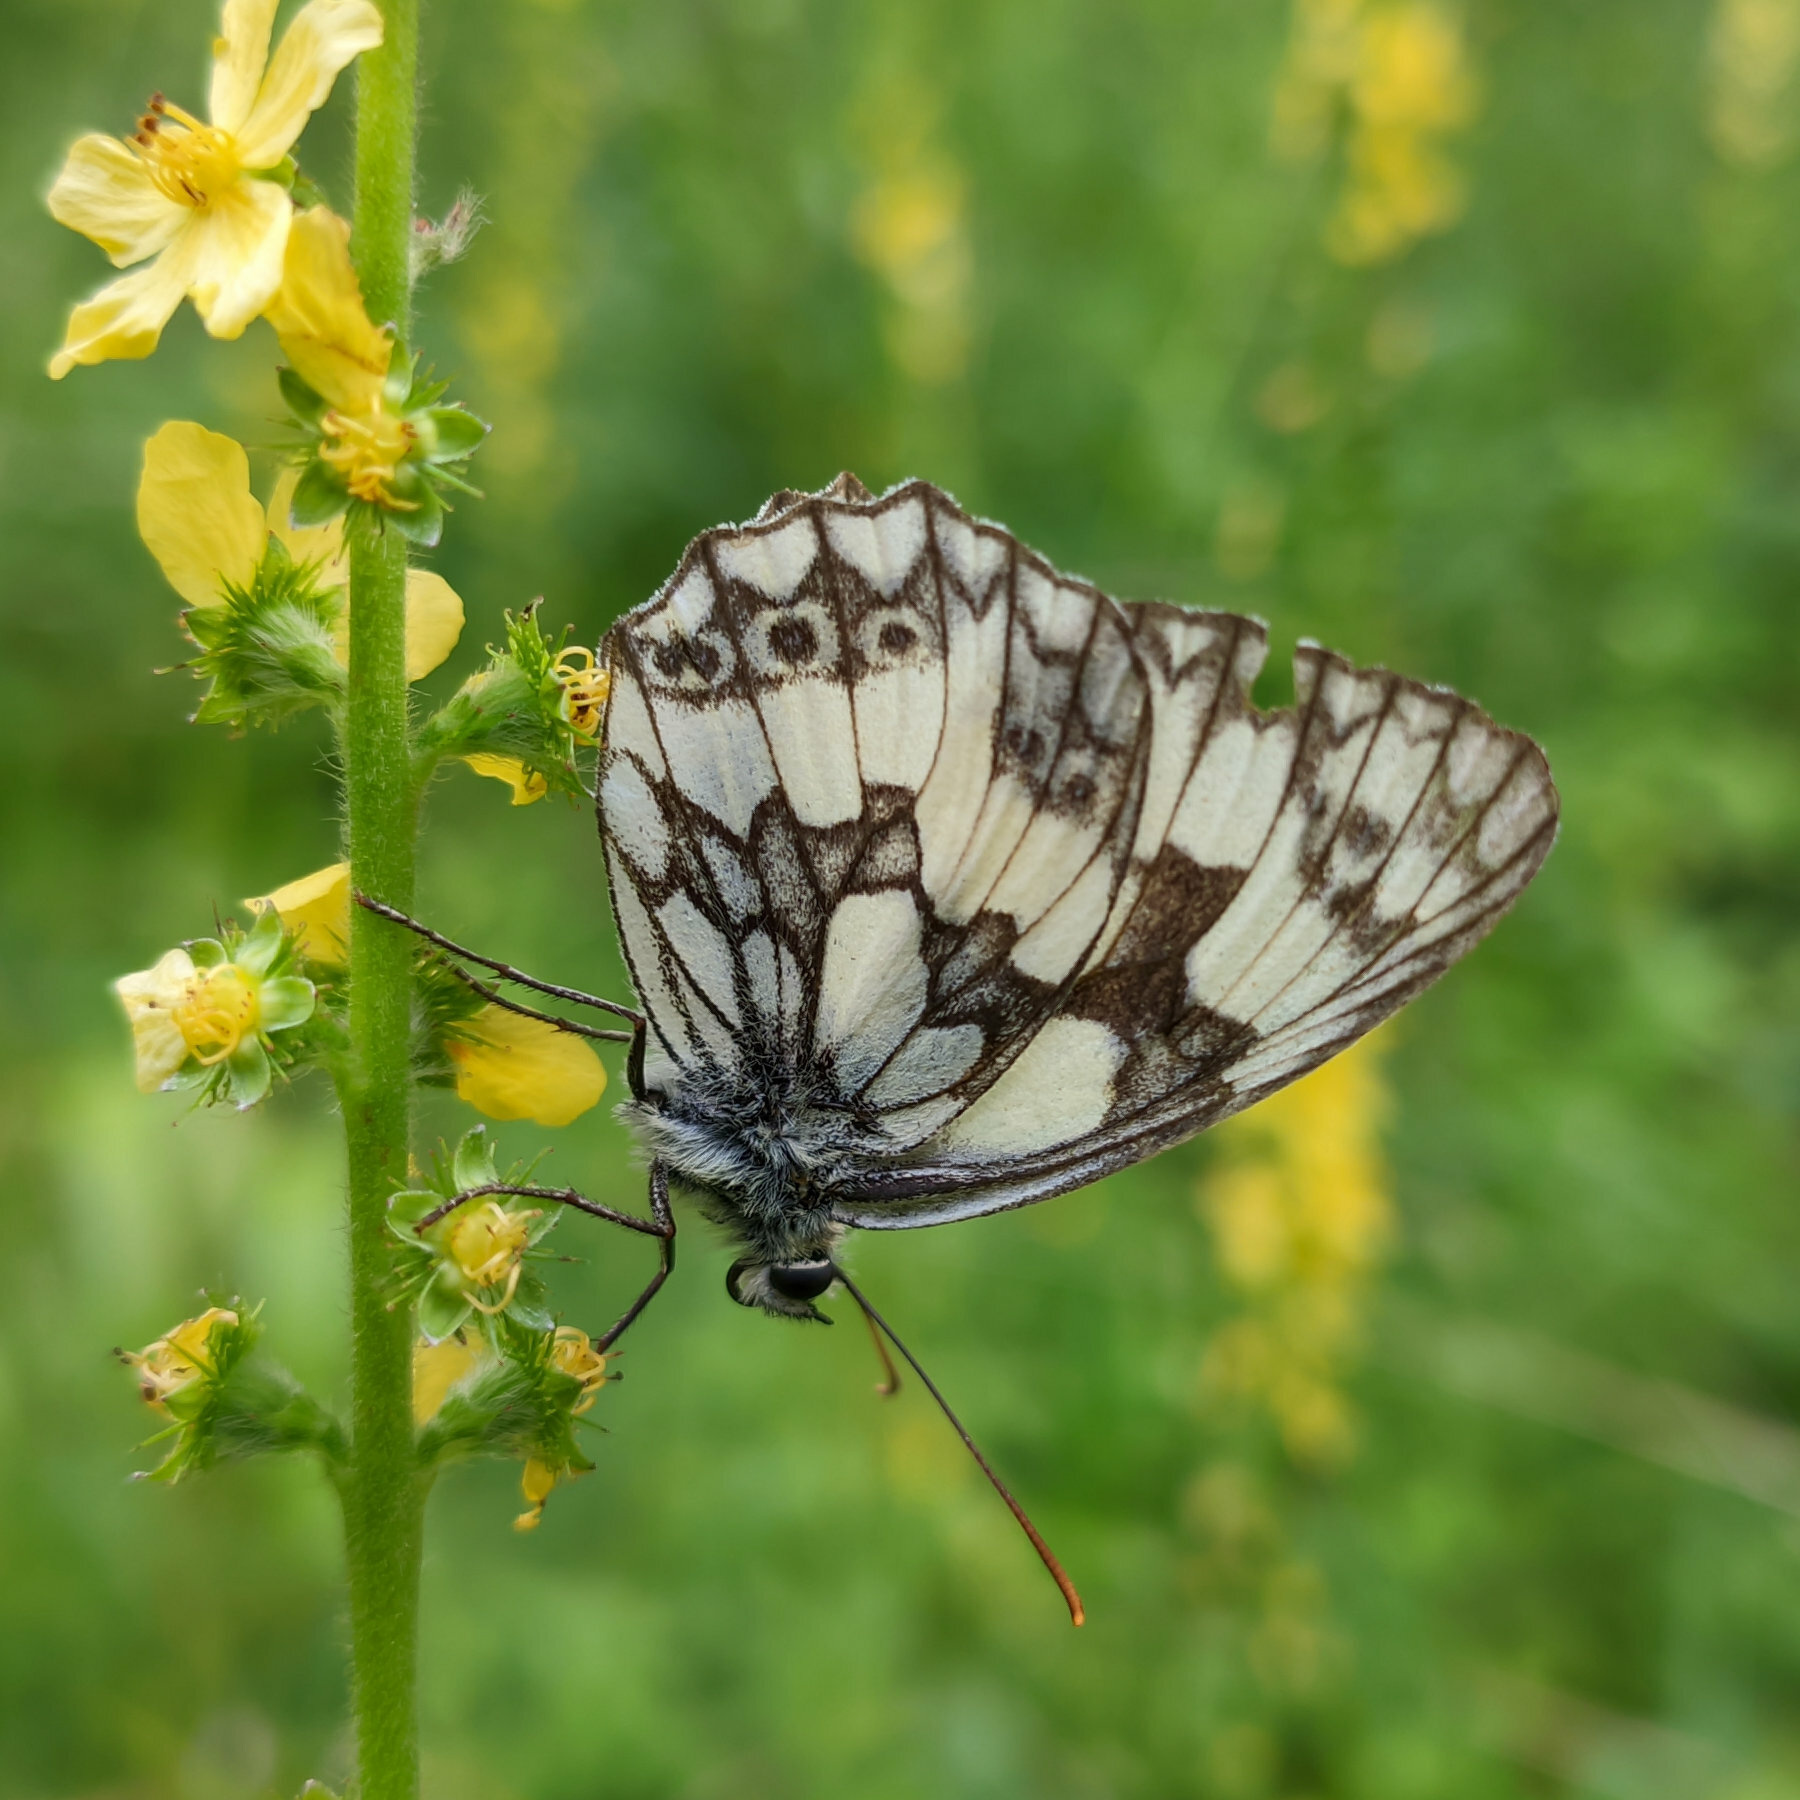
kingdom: Animalia
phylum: Arthropoda
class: Insecta
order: Lepidoptera
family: Nymphalidae
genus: Melanargia
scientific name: Melanargia galathea
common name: Marbled white
